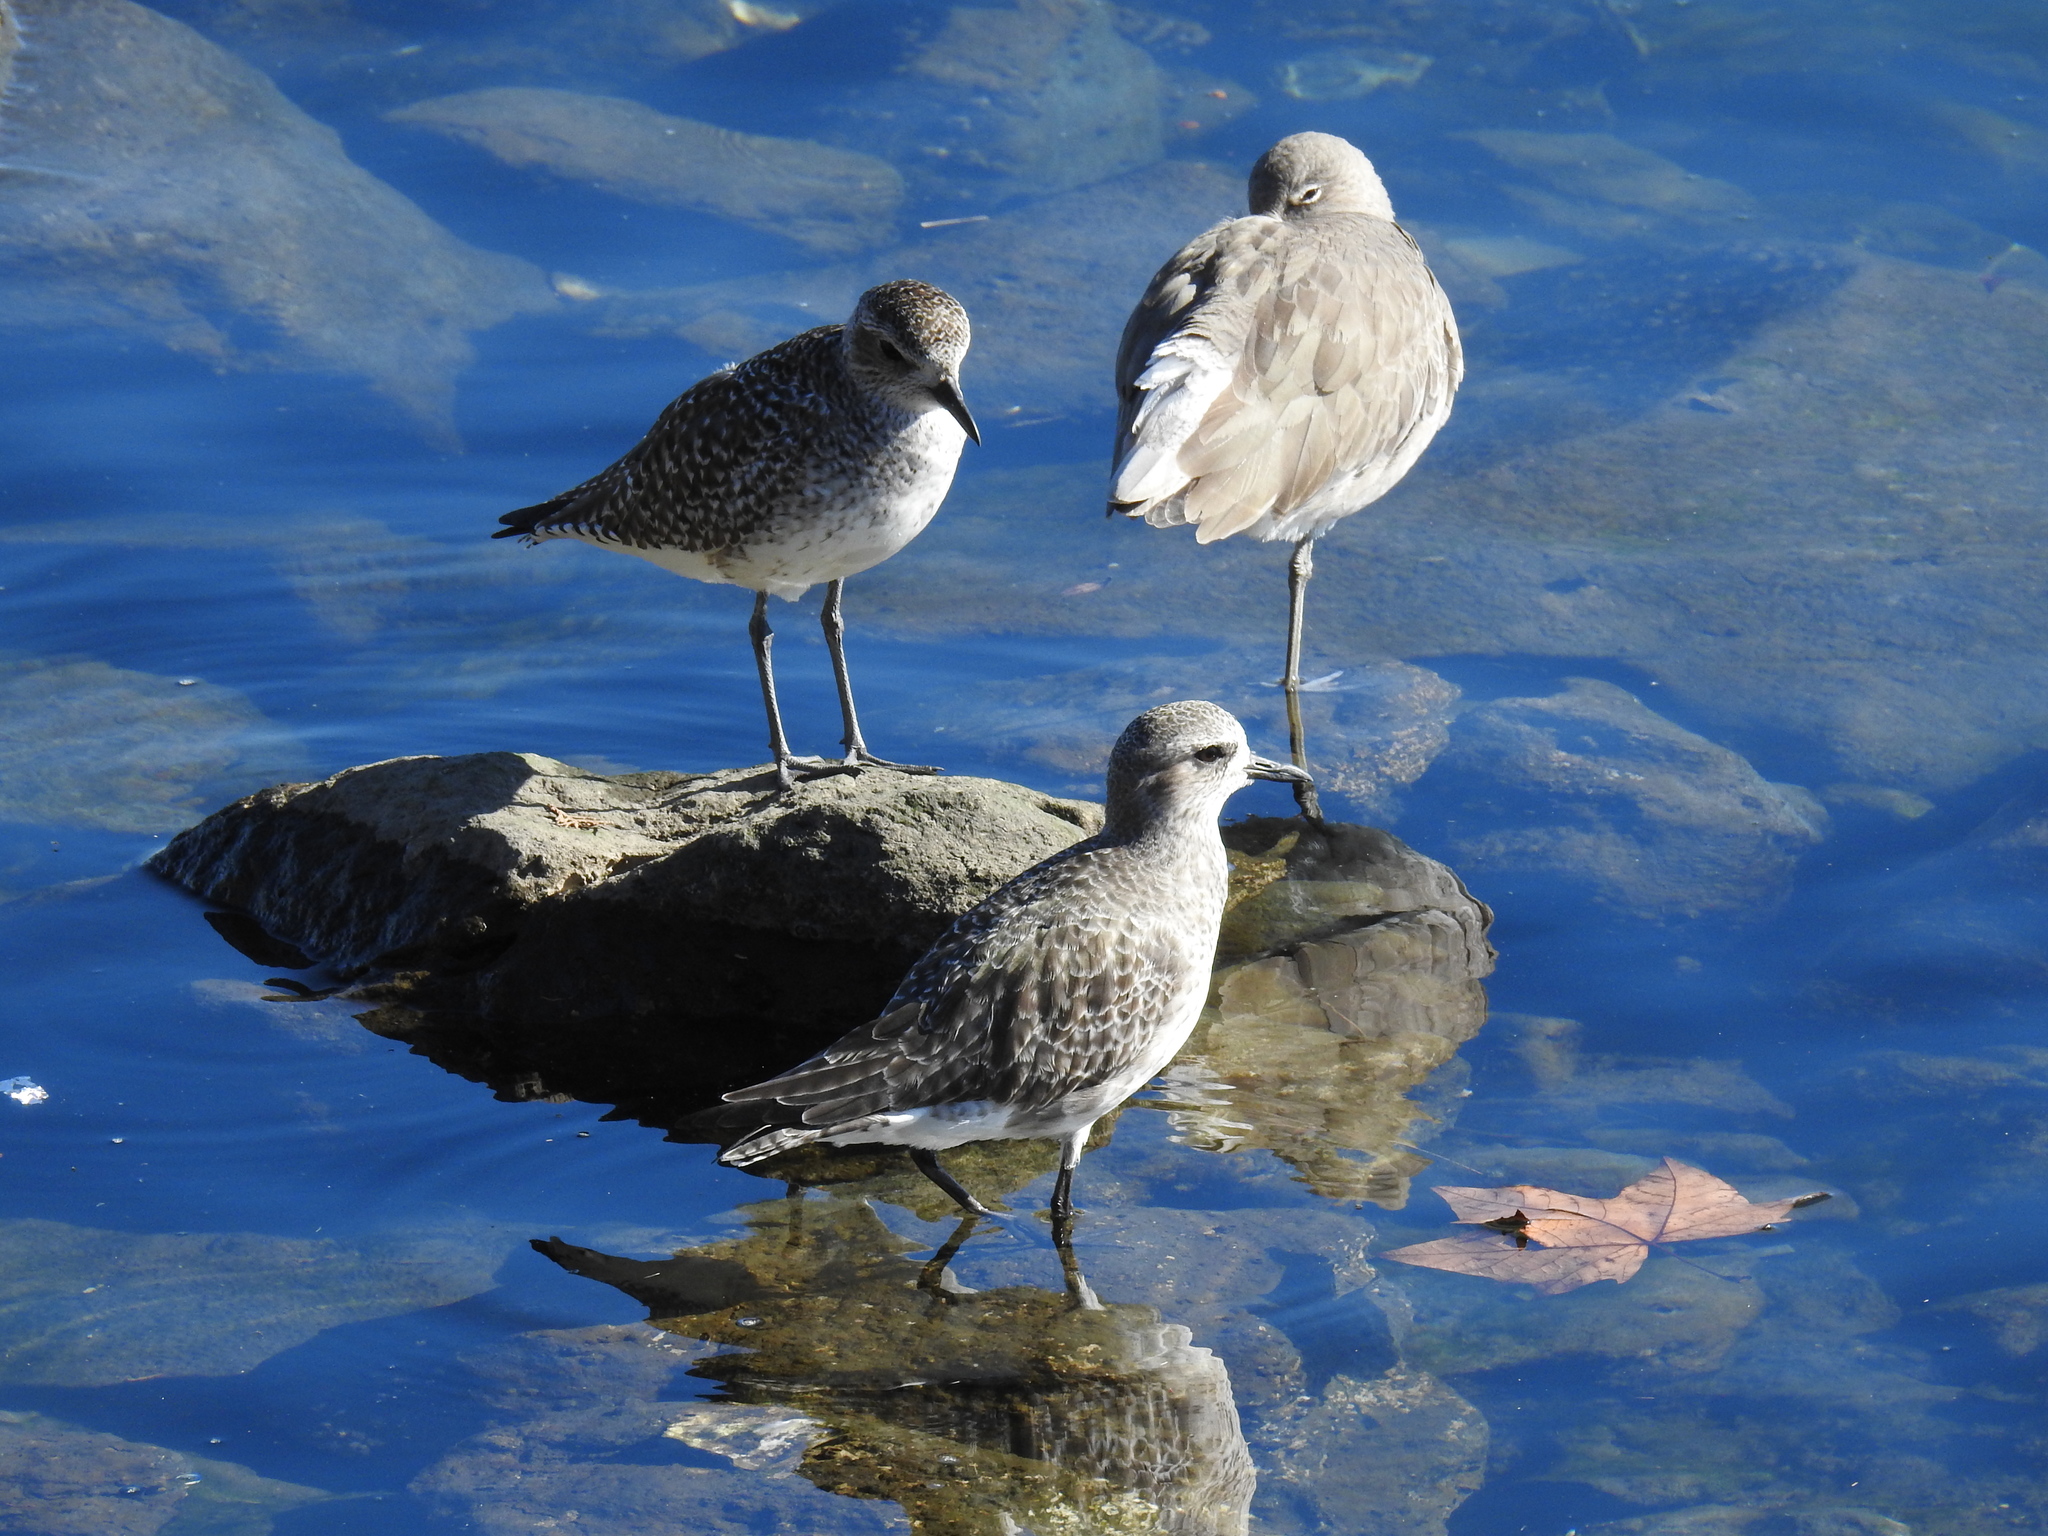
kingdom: Animalia
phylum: Chordata
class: Aves
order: Charadriiformes
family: Charadriidae
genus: Pluvialis
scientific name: Pluvialis squatarola
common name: Grey plover
